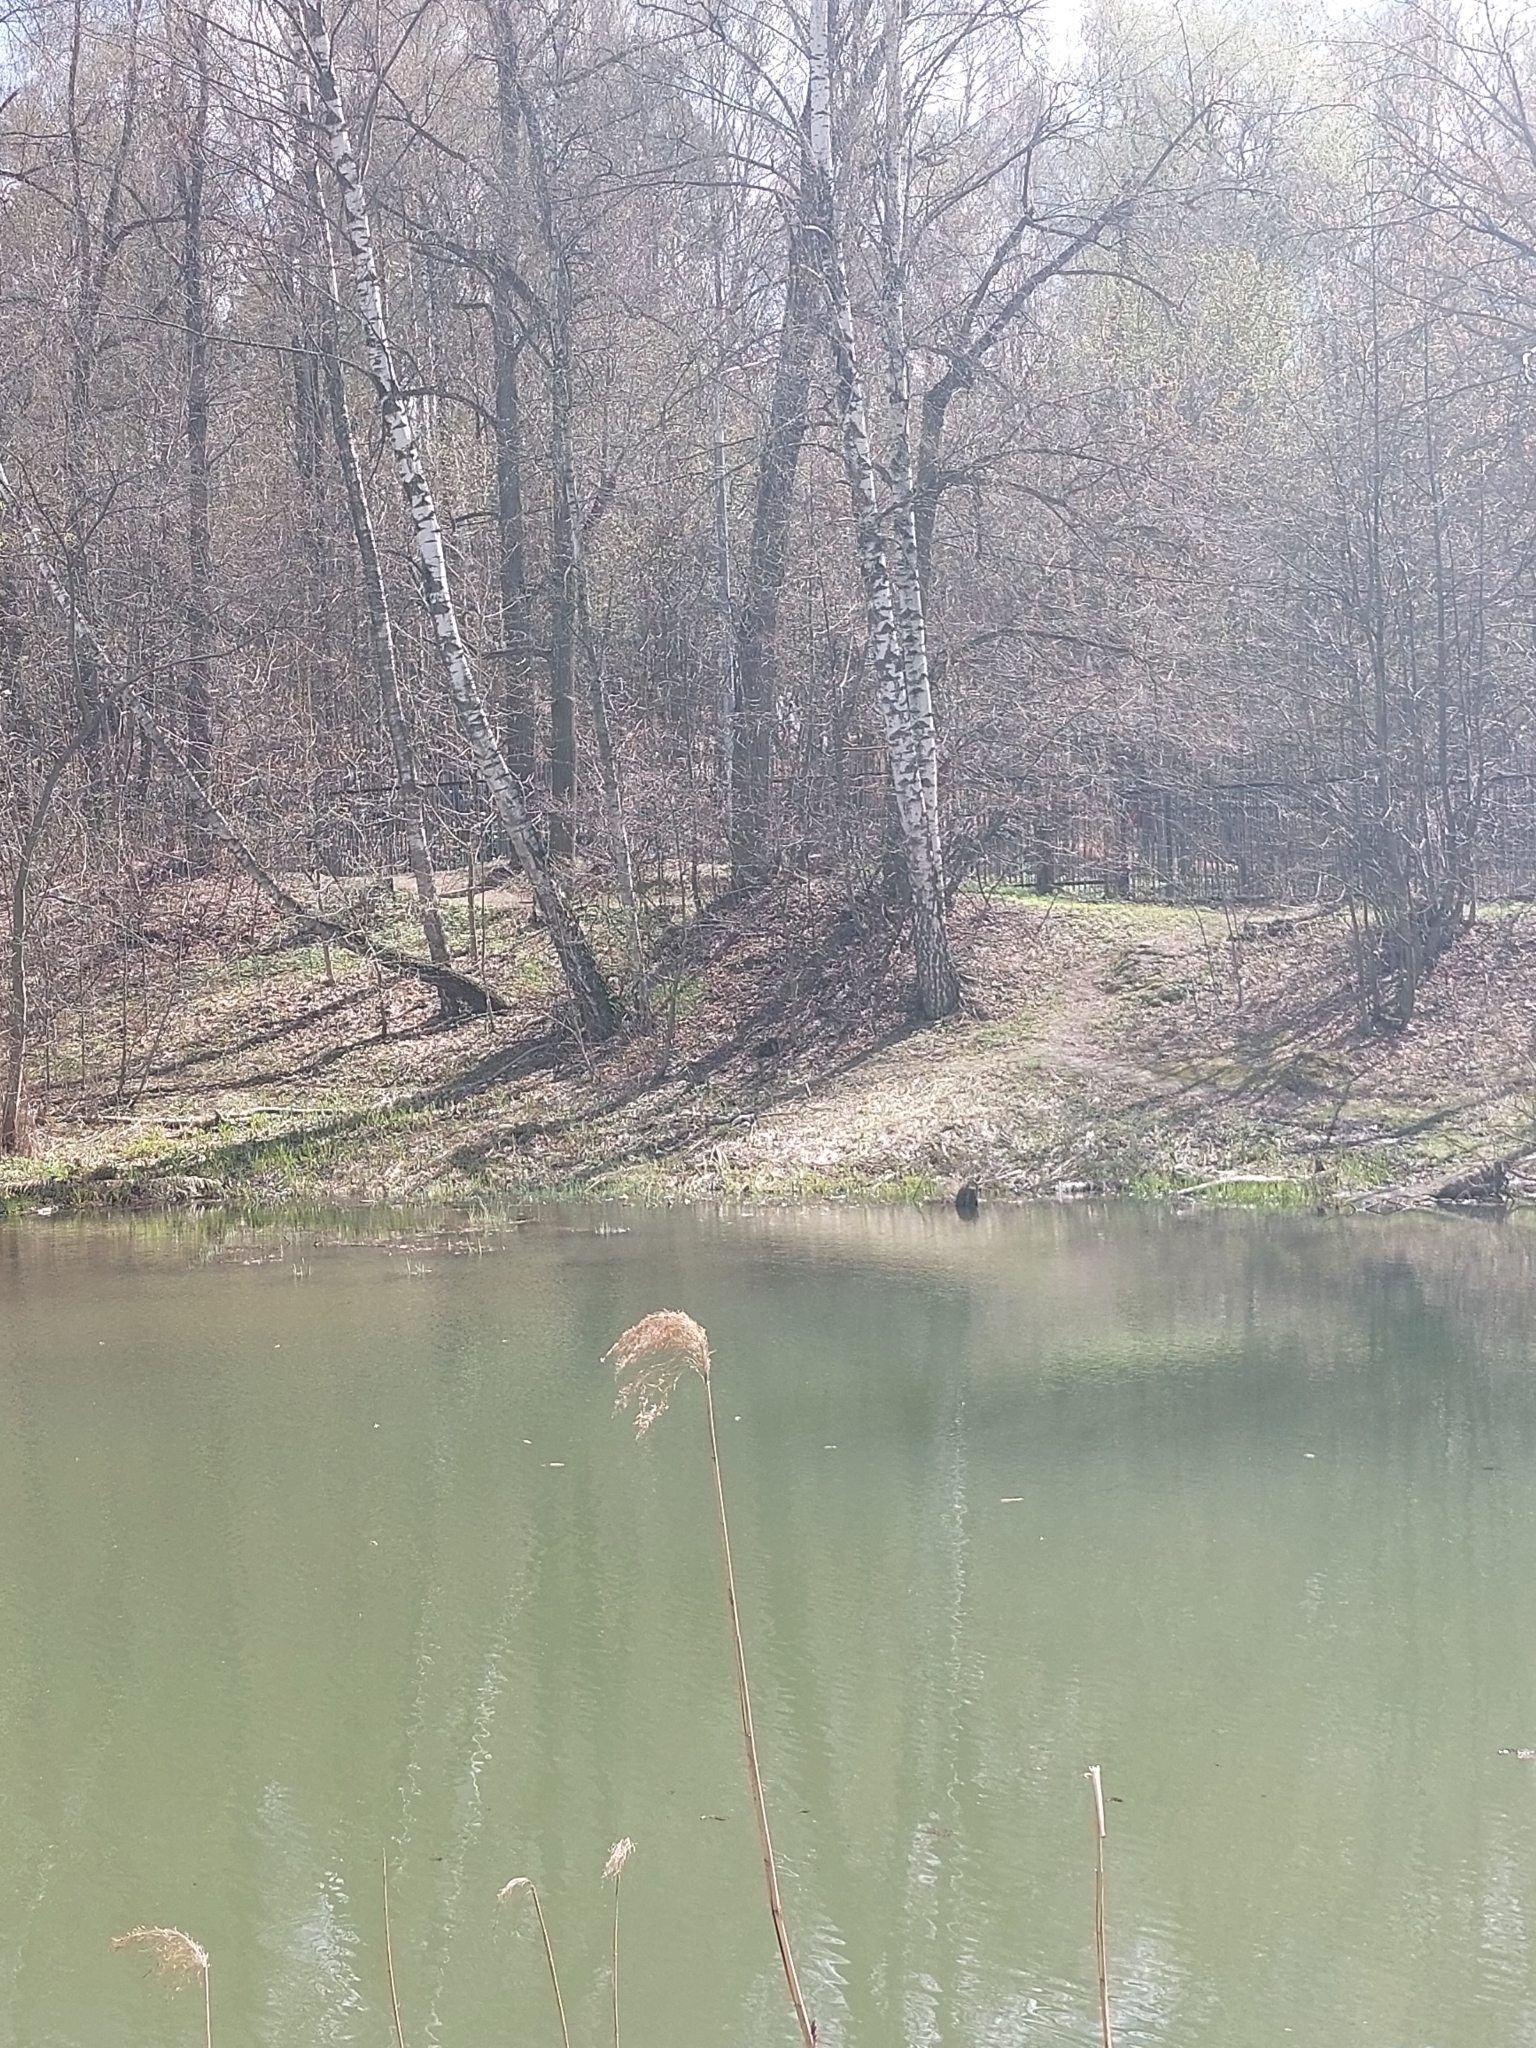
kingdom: Plantae
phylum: Tracheophyta
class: Liliopsida
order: Poales
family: Poaceae
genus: Phragmites
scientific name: Phragmites australis
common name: Common reed
